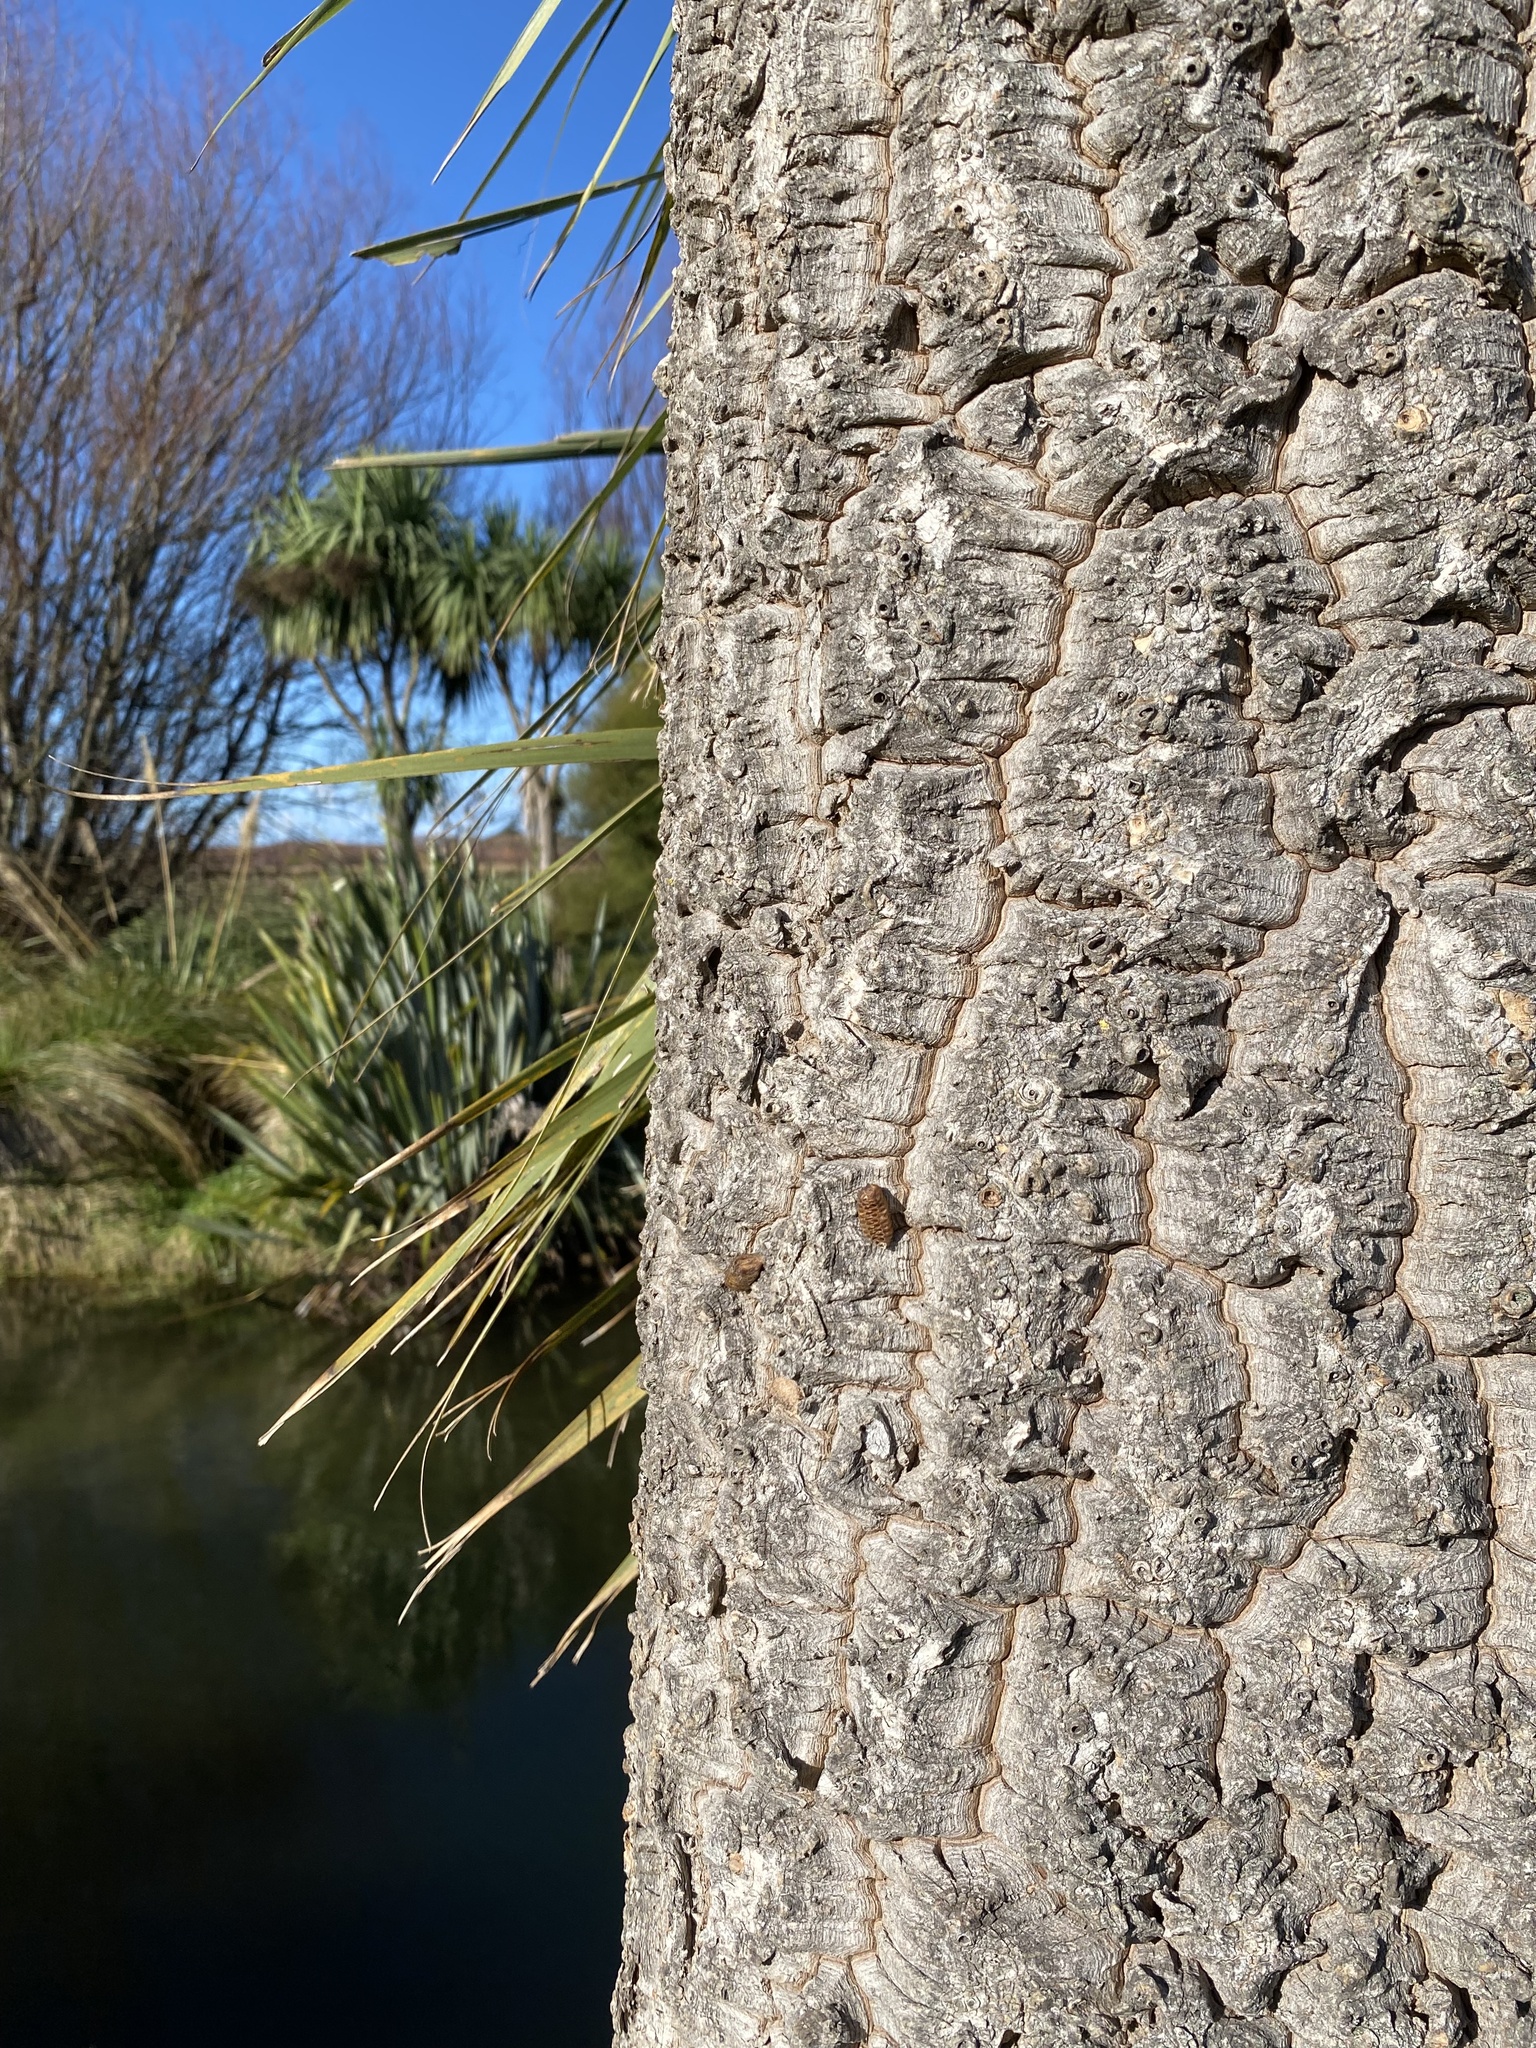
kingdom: Animalia
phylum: Arthropoda
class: Insecta
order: Mantodea
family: Mantidae
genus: Orthodera
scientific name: Orthodera novaezealandiae
